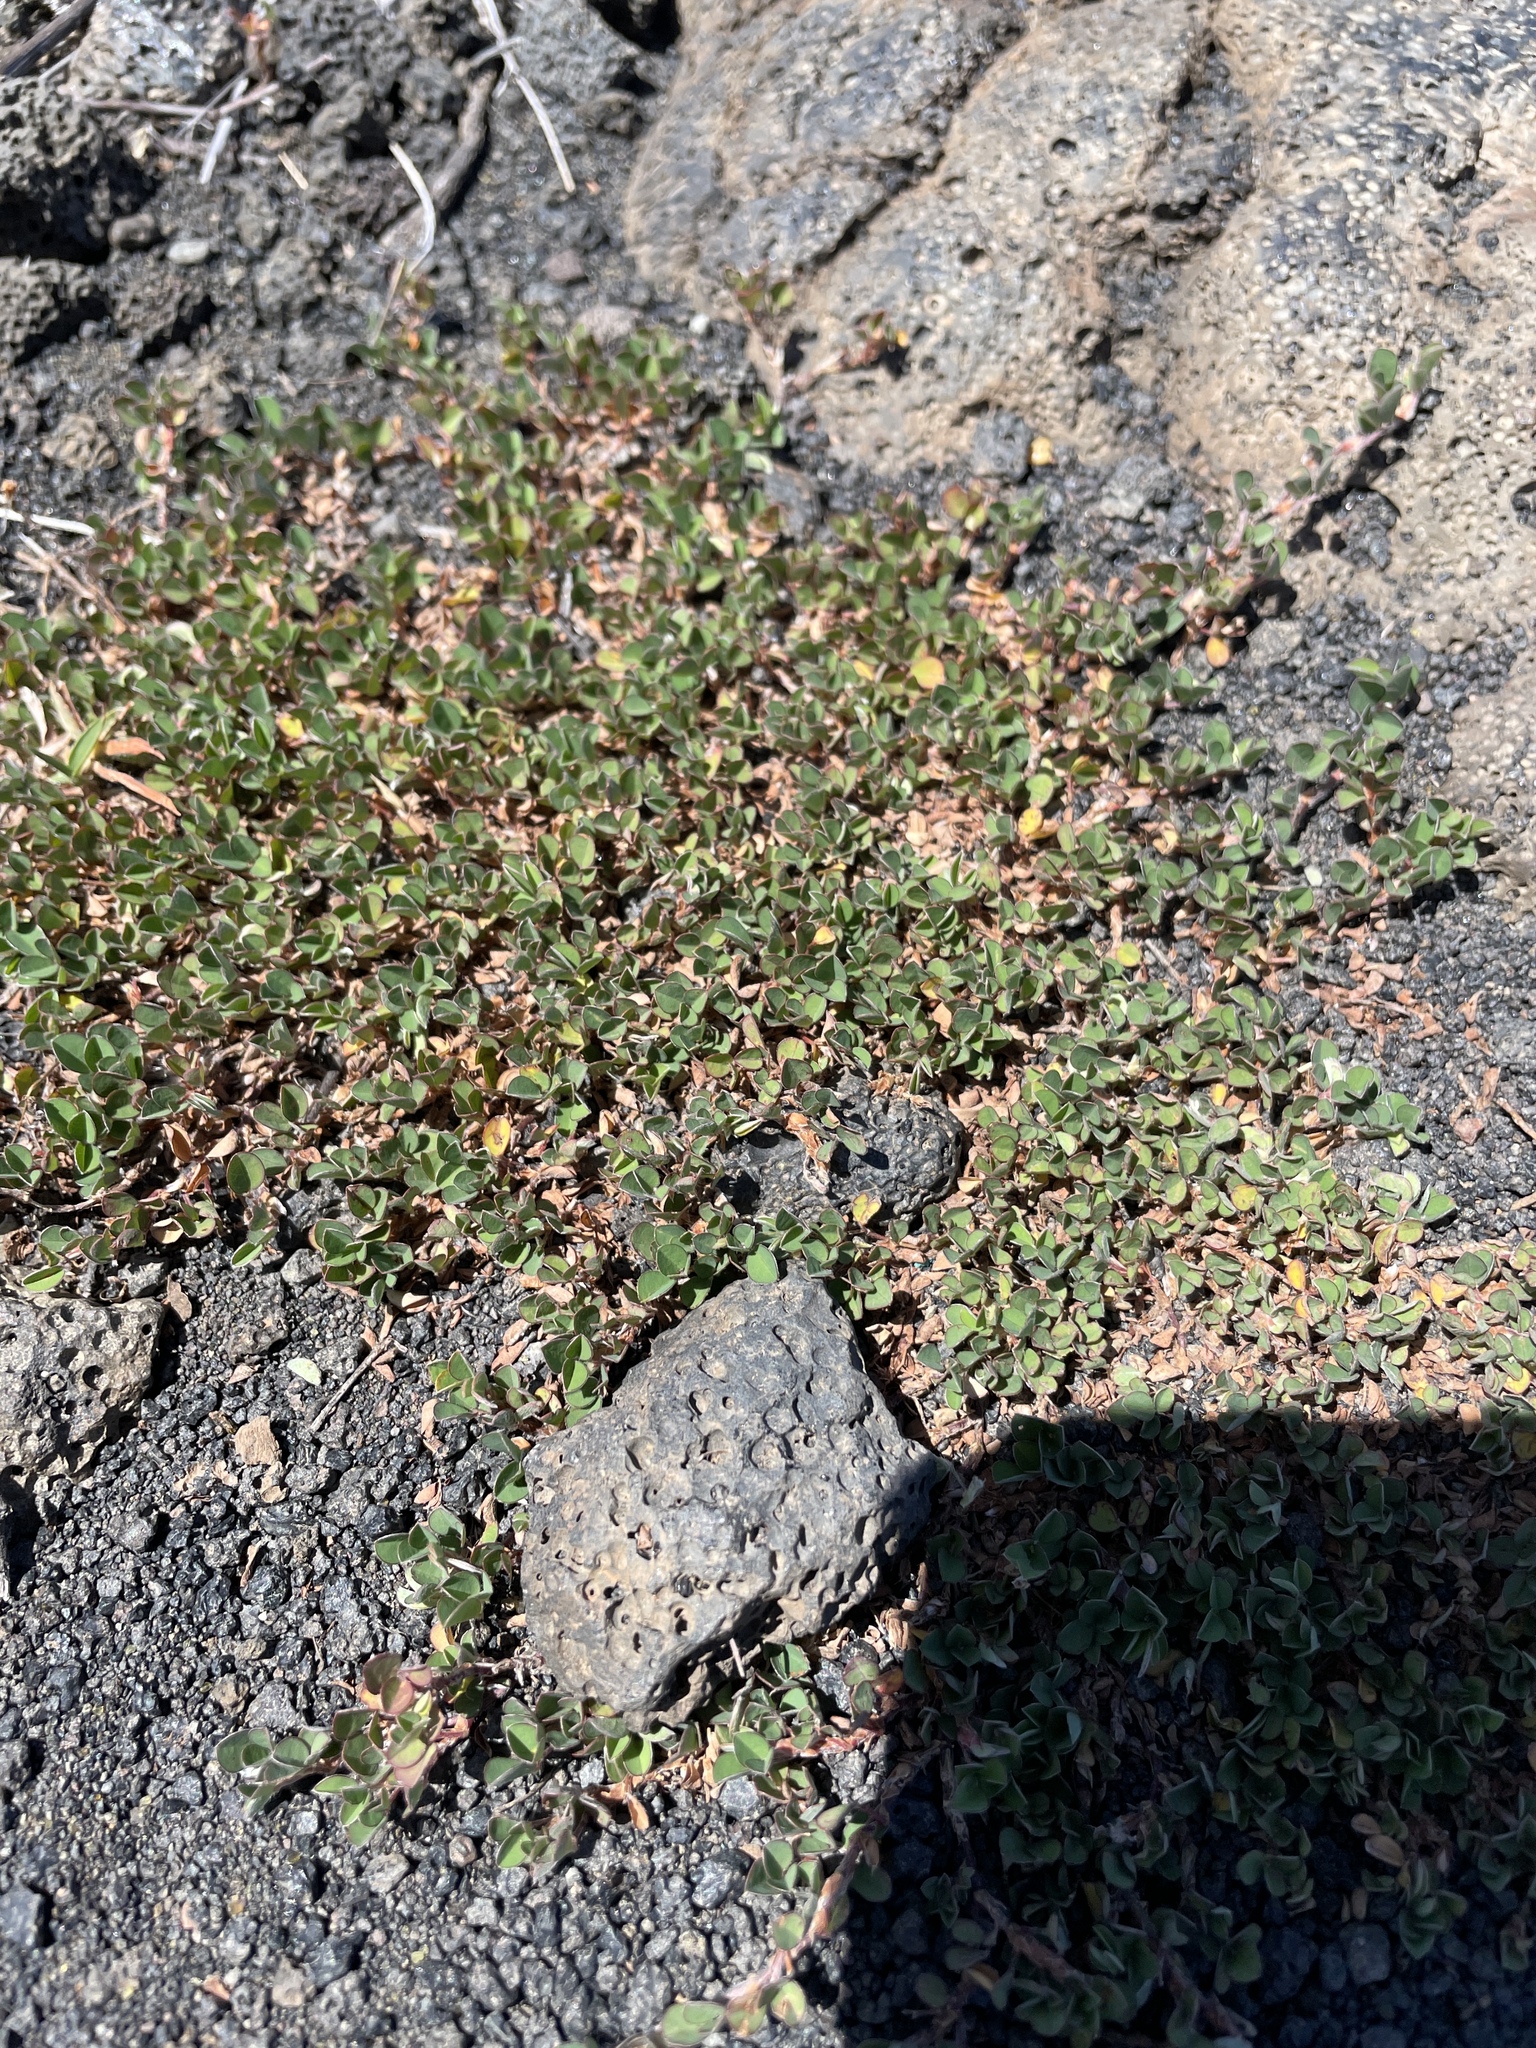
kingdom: Plantae
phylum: Tracheophyta
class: Magnoliopsida
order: Fabales
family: Fabaceae
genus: Grona
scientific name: Grona triflora
